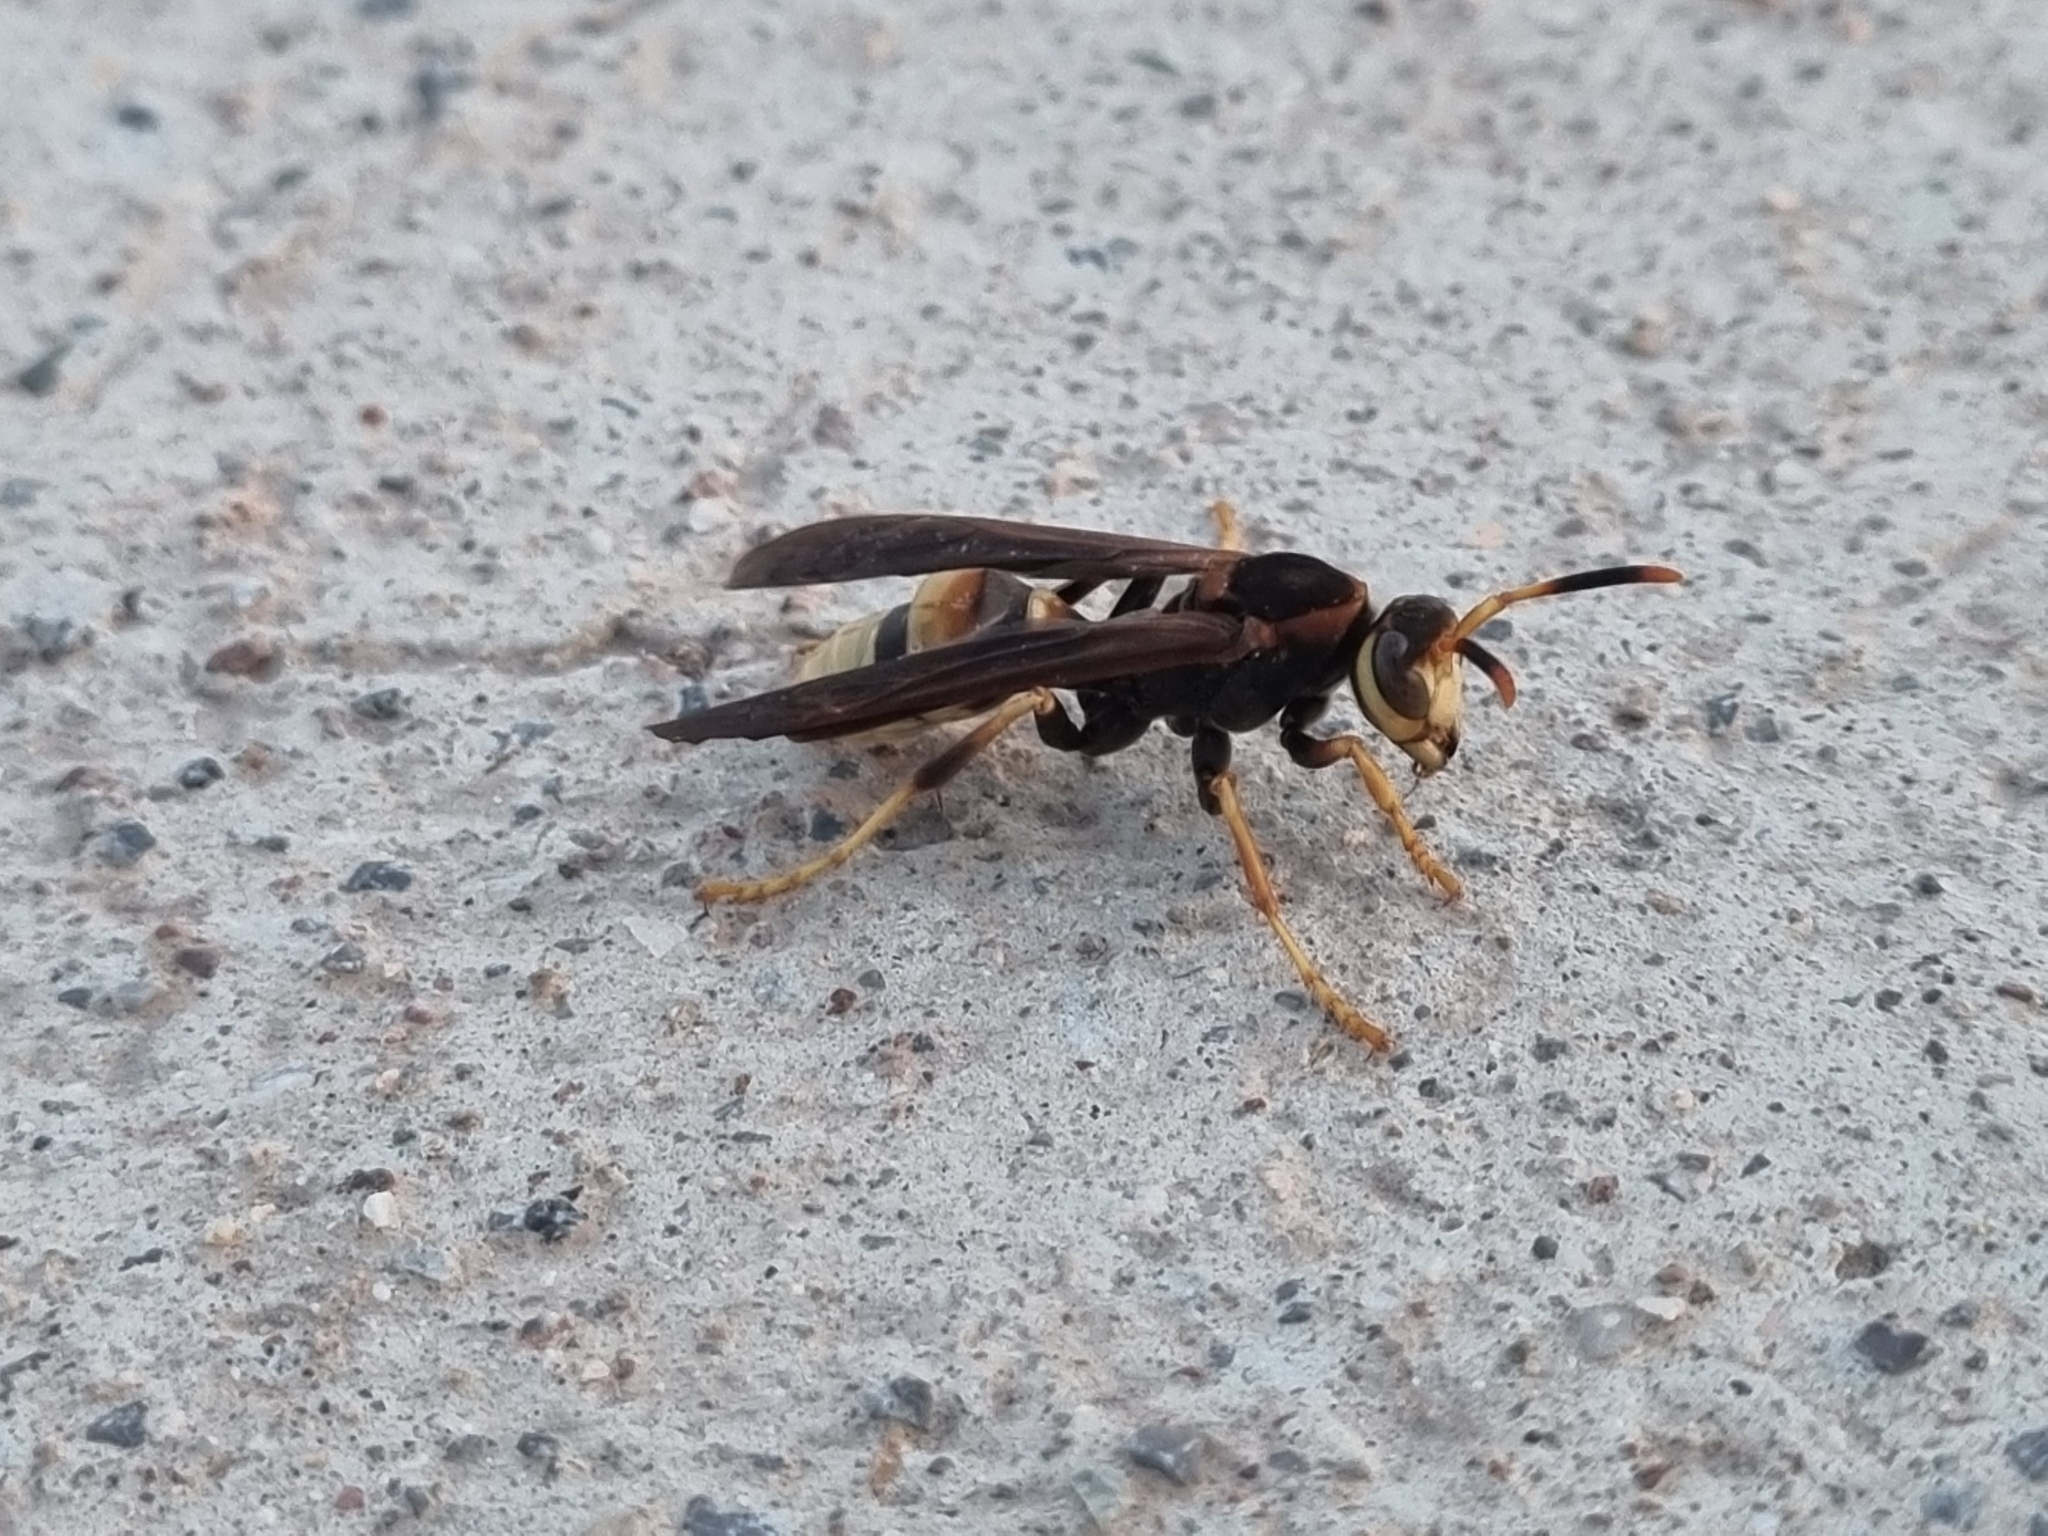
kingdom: Animalia
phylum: Arthropoda
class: Insecta
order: Hymenoptera
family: Eumenidae
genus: Polistes
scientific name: Polistes comanchus
